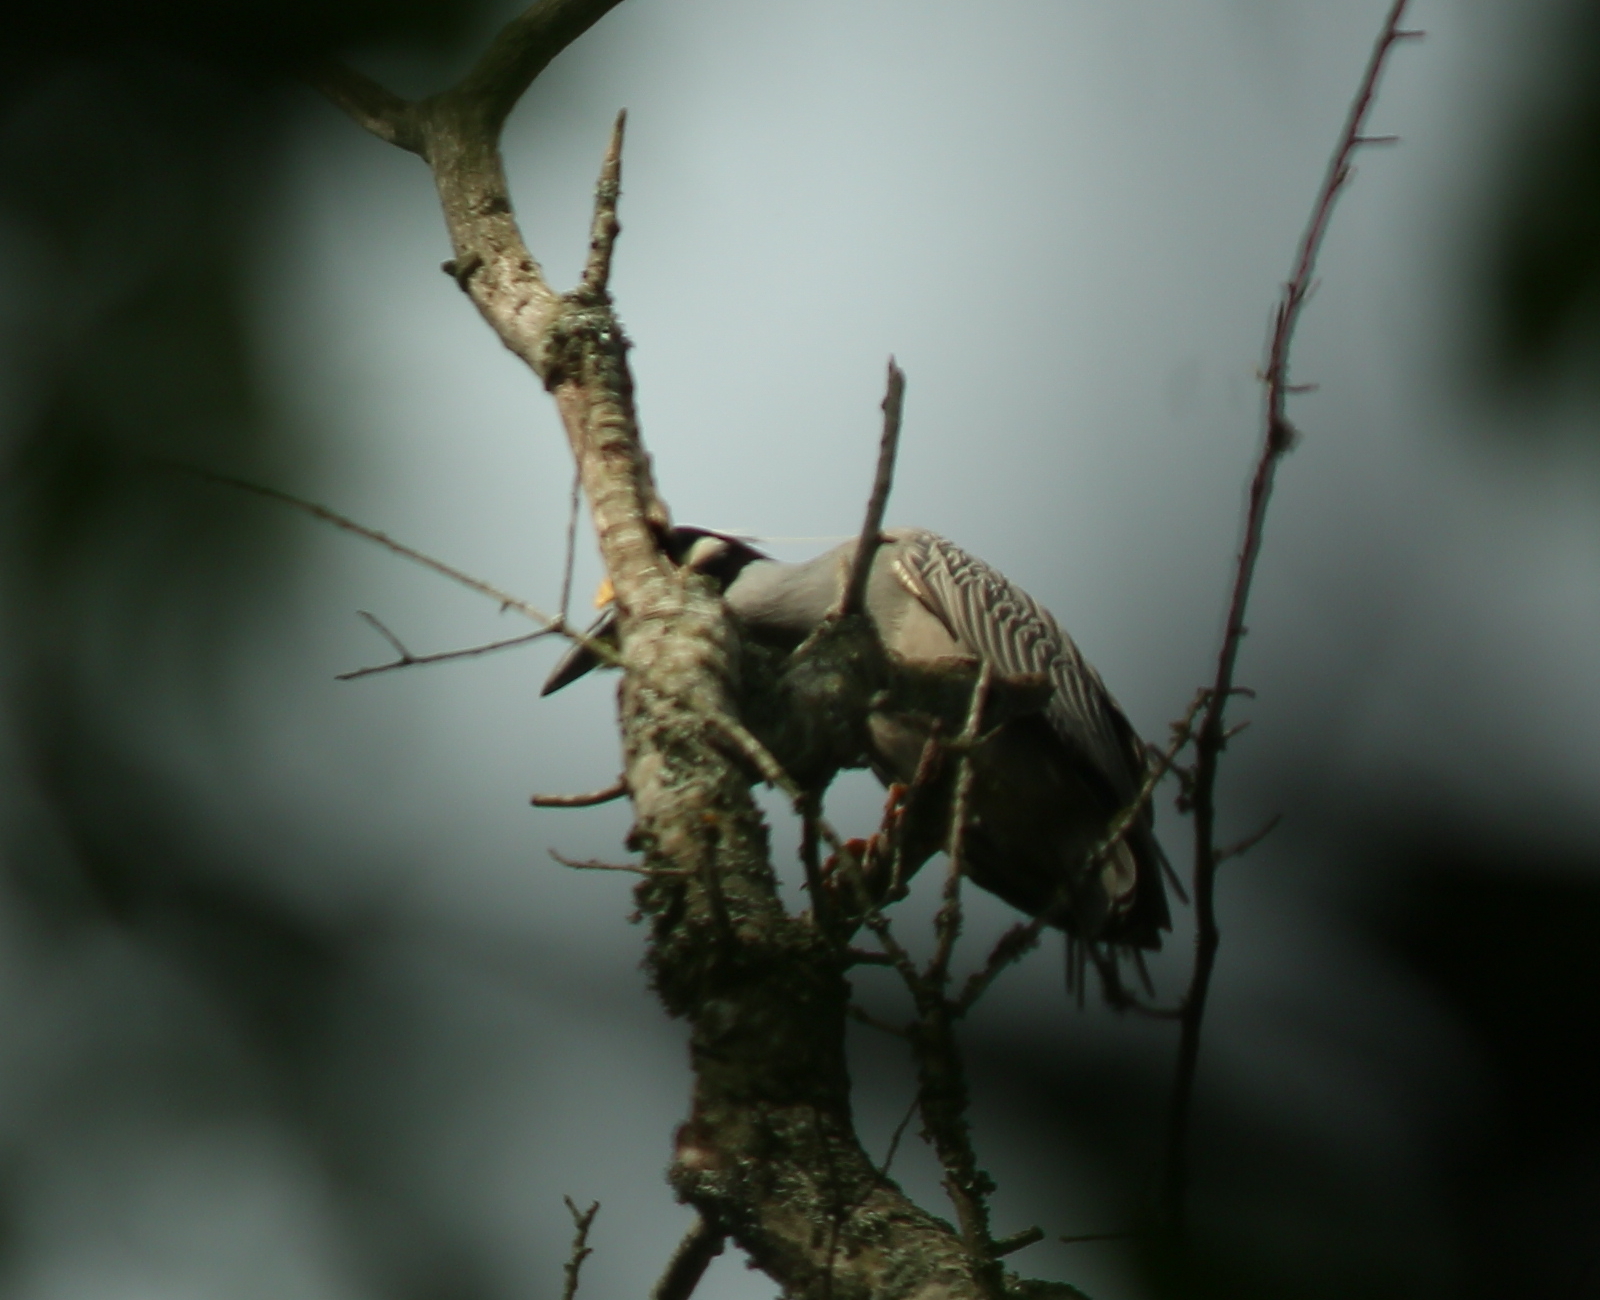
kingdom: Animalia
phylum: Chordata
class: Aves
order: Pelecaniformes
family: Ardeidae
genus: Nyctanassa
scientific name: Nyctanassa violacea
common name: Yellow-crowned night heron
